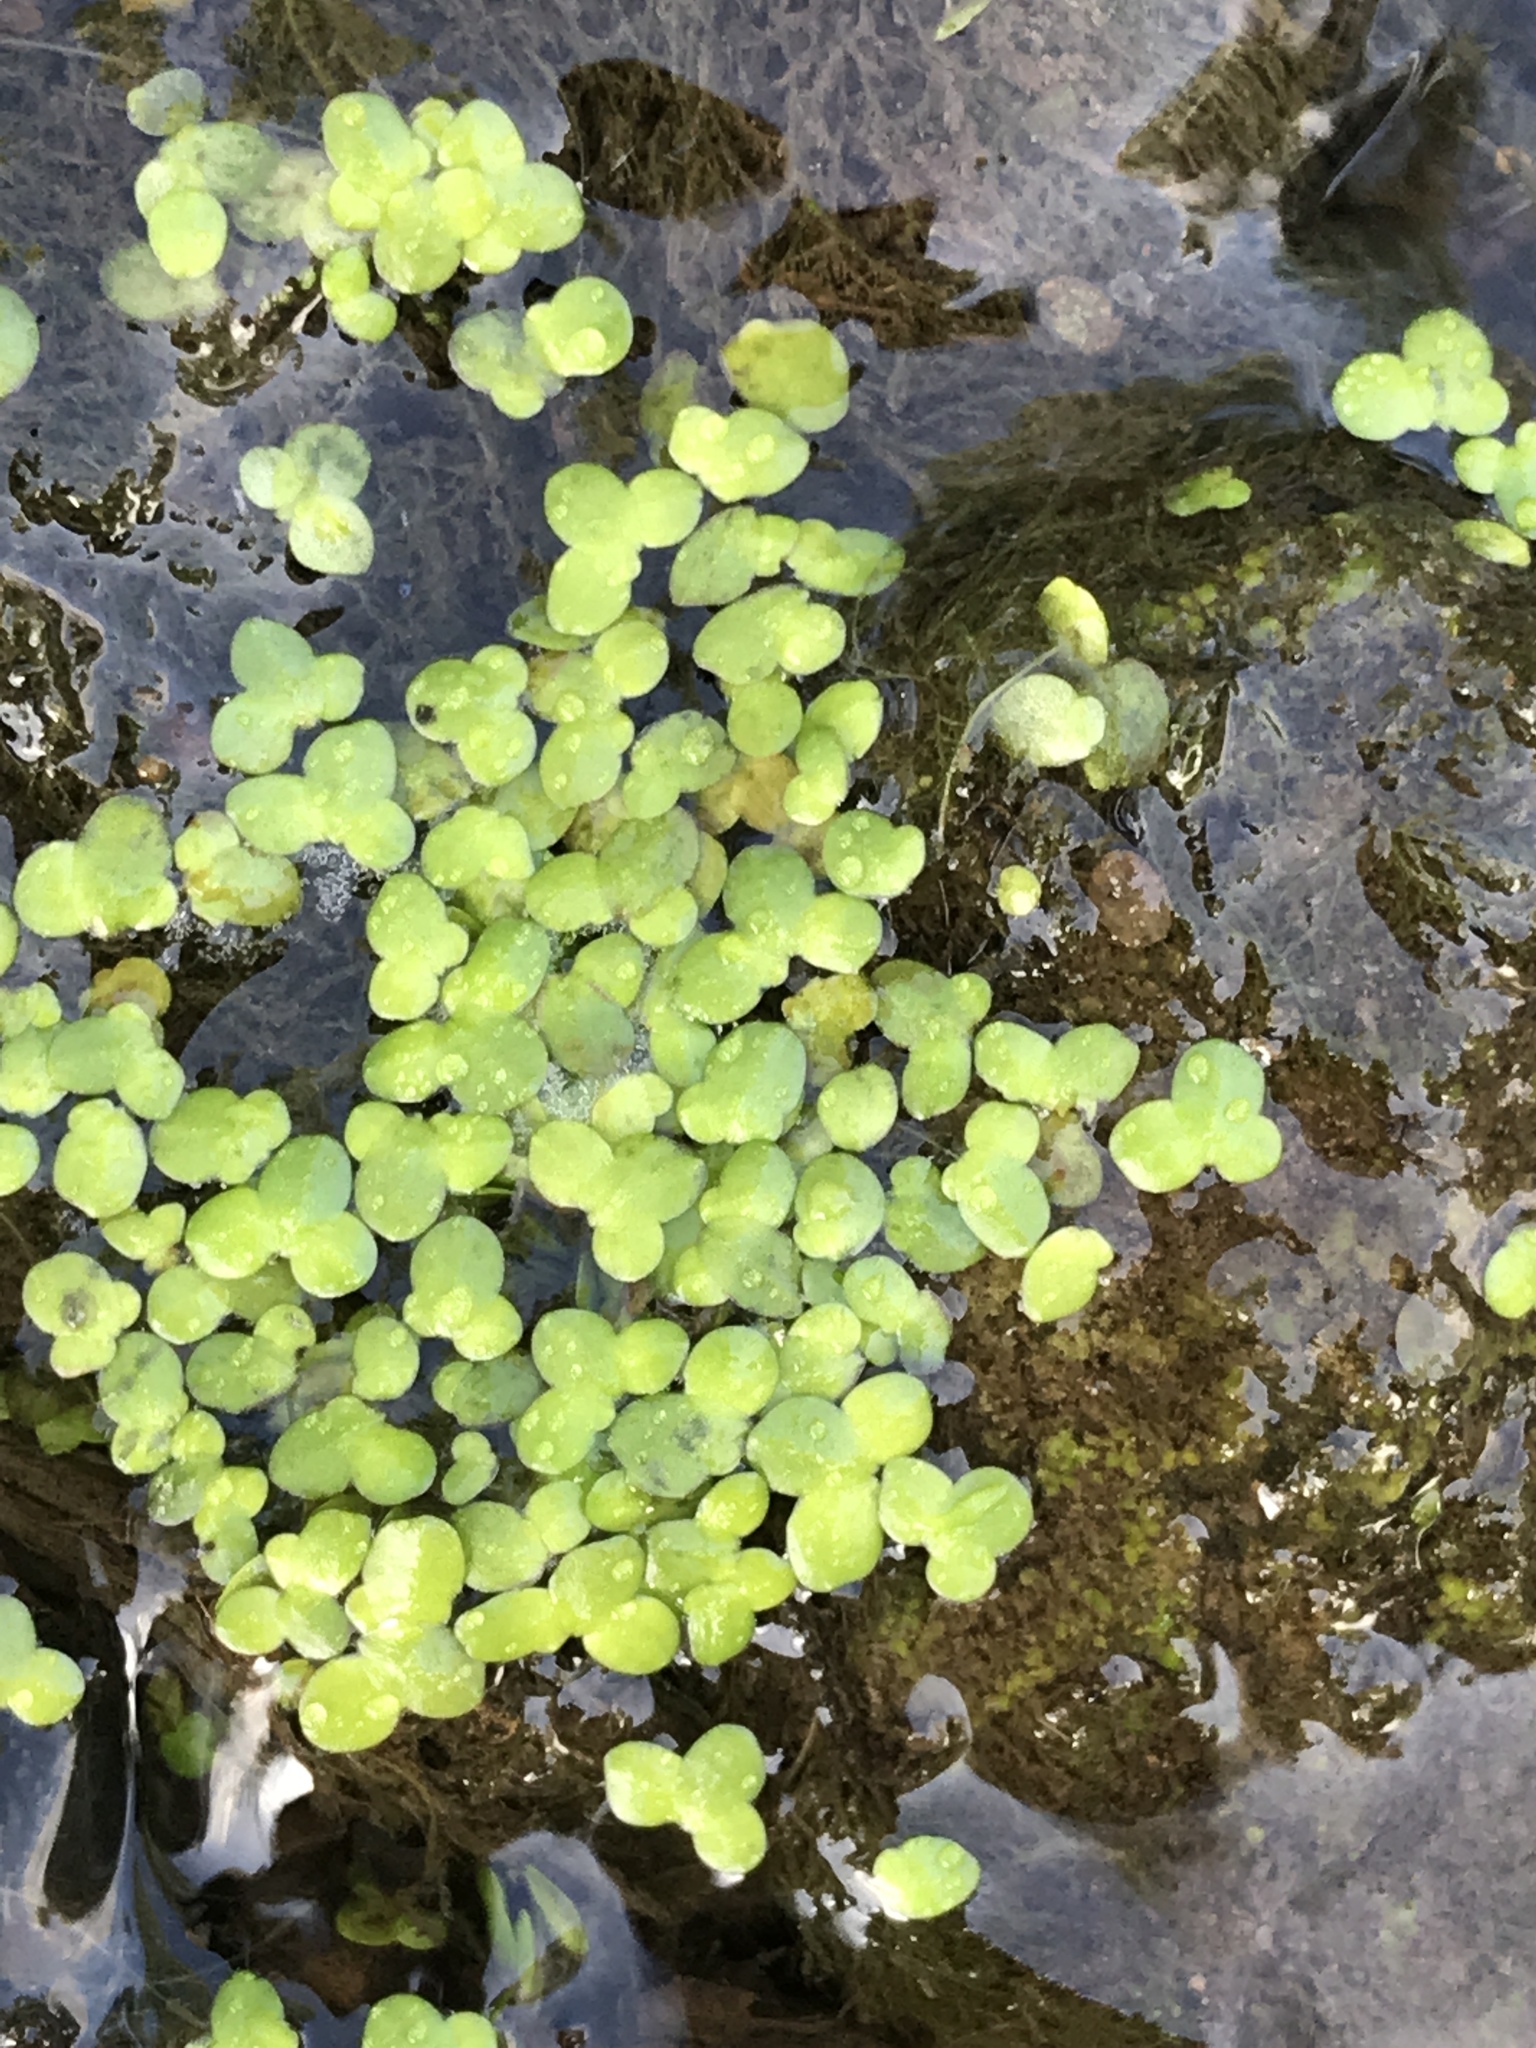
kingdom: Plantae
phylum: Tracheophyta
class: Liliopsida
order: Alismatales
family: Araceae
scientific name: Araceae
